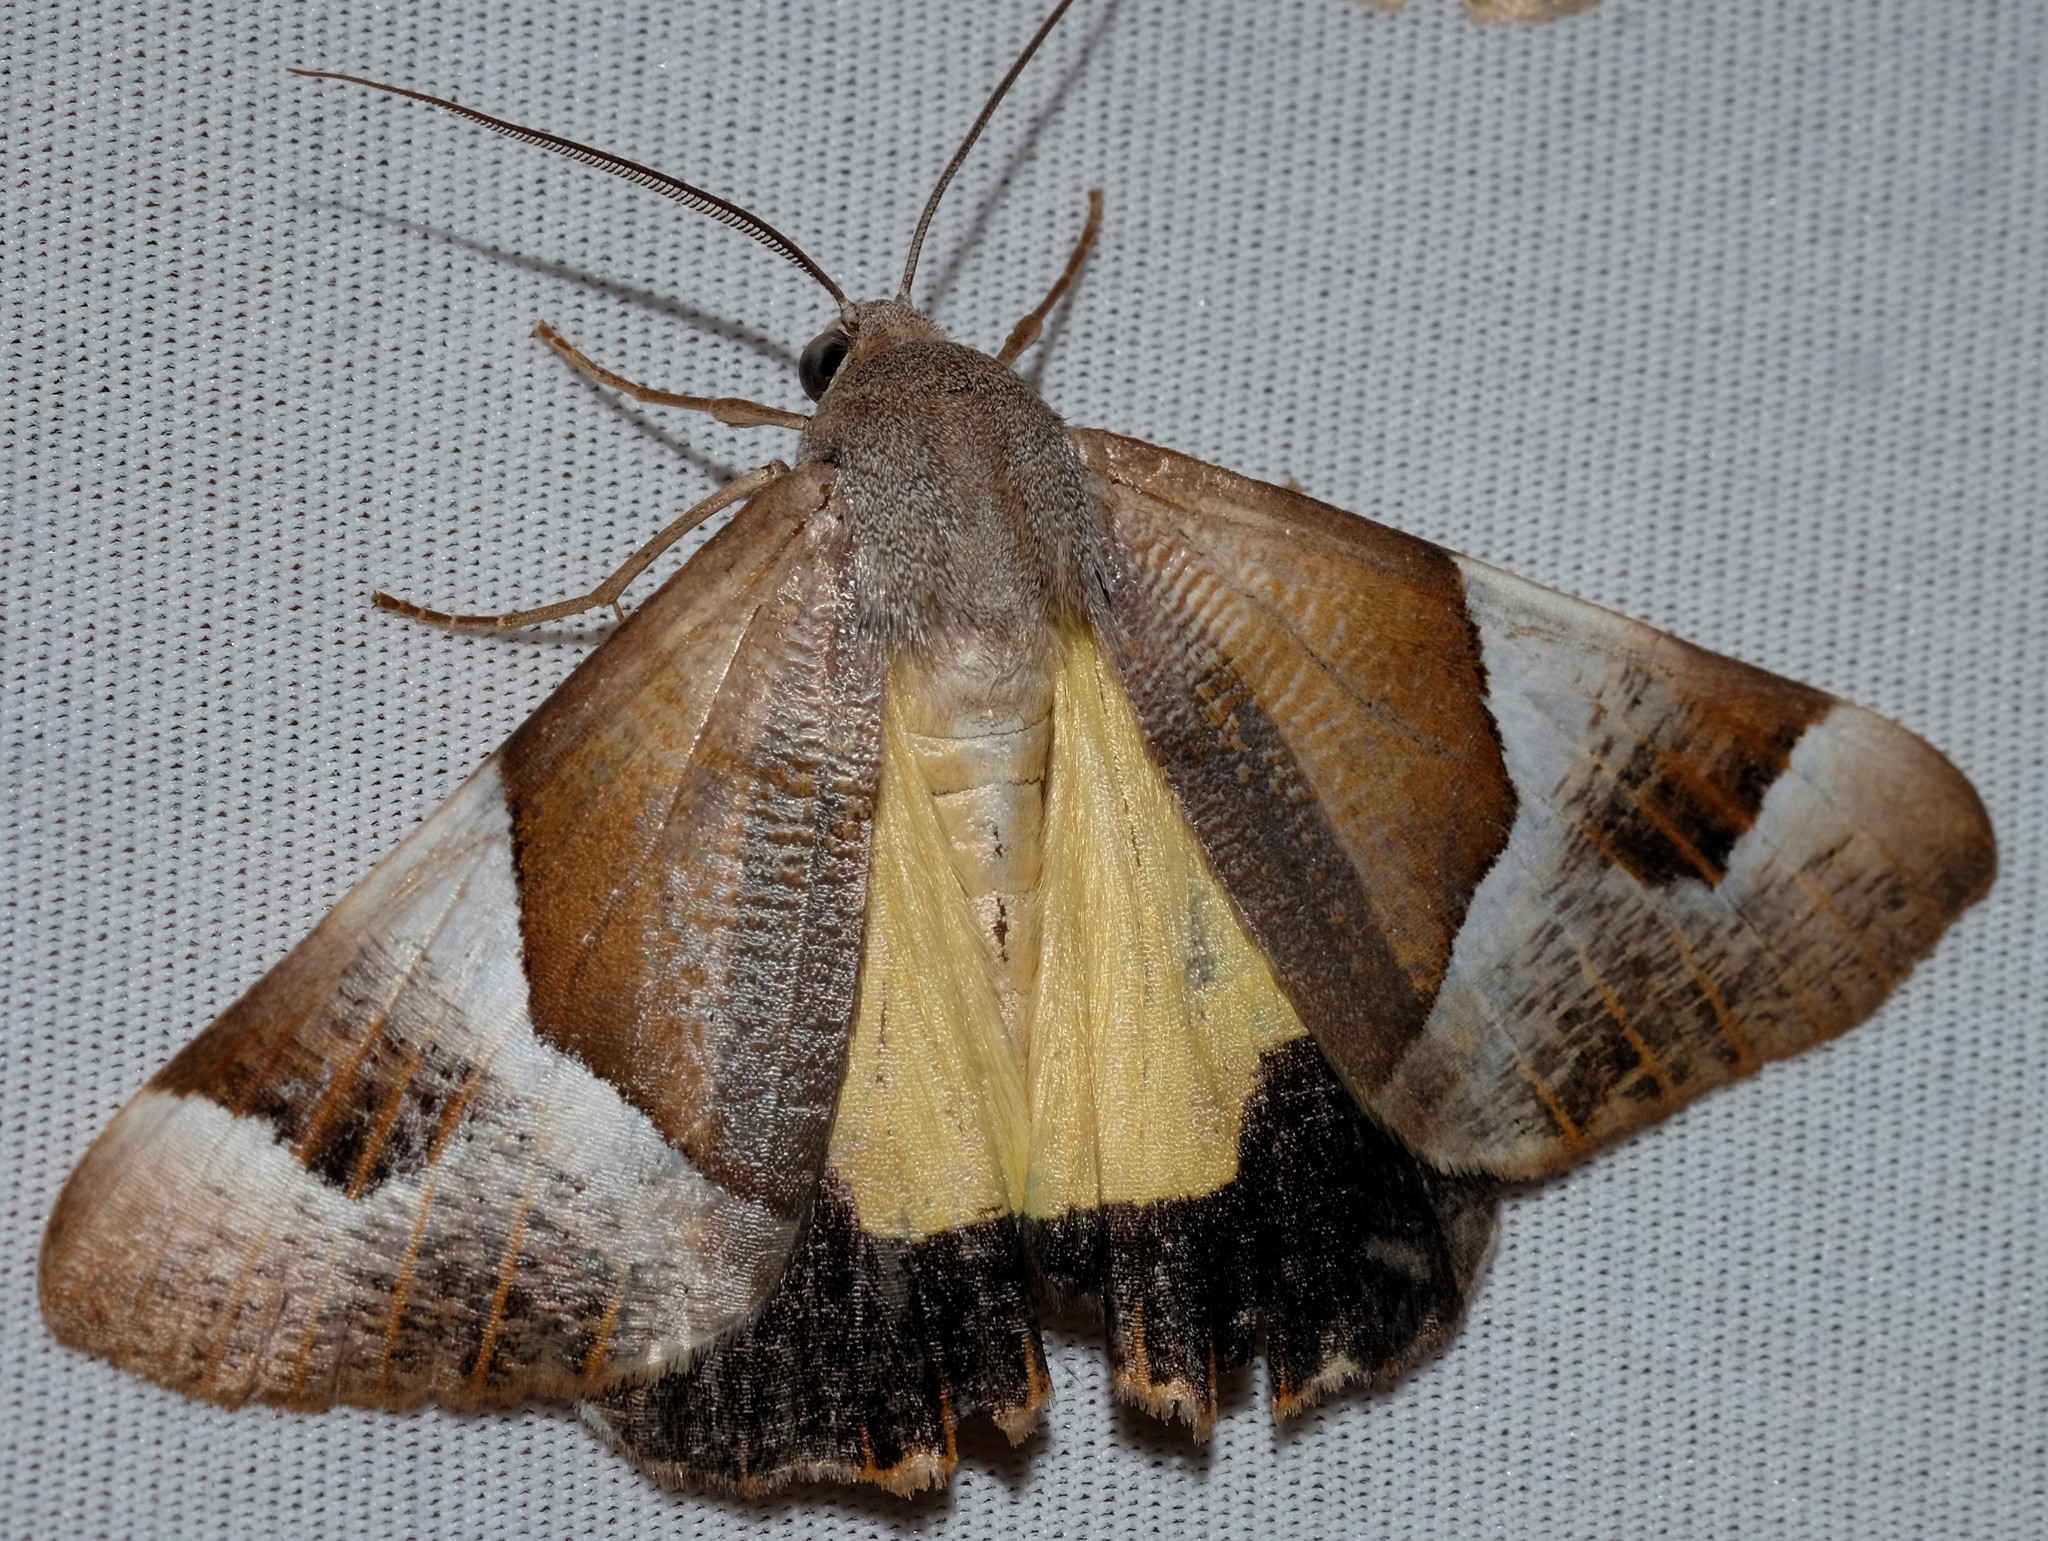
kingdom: Animalia
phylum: Arthropoda
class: Insecta
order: Lepidoptera
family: Geometridae
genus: Niceteria
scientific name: Niceteria macrocosma
